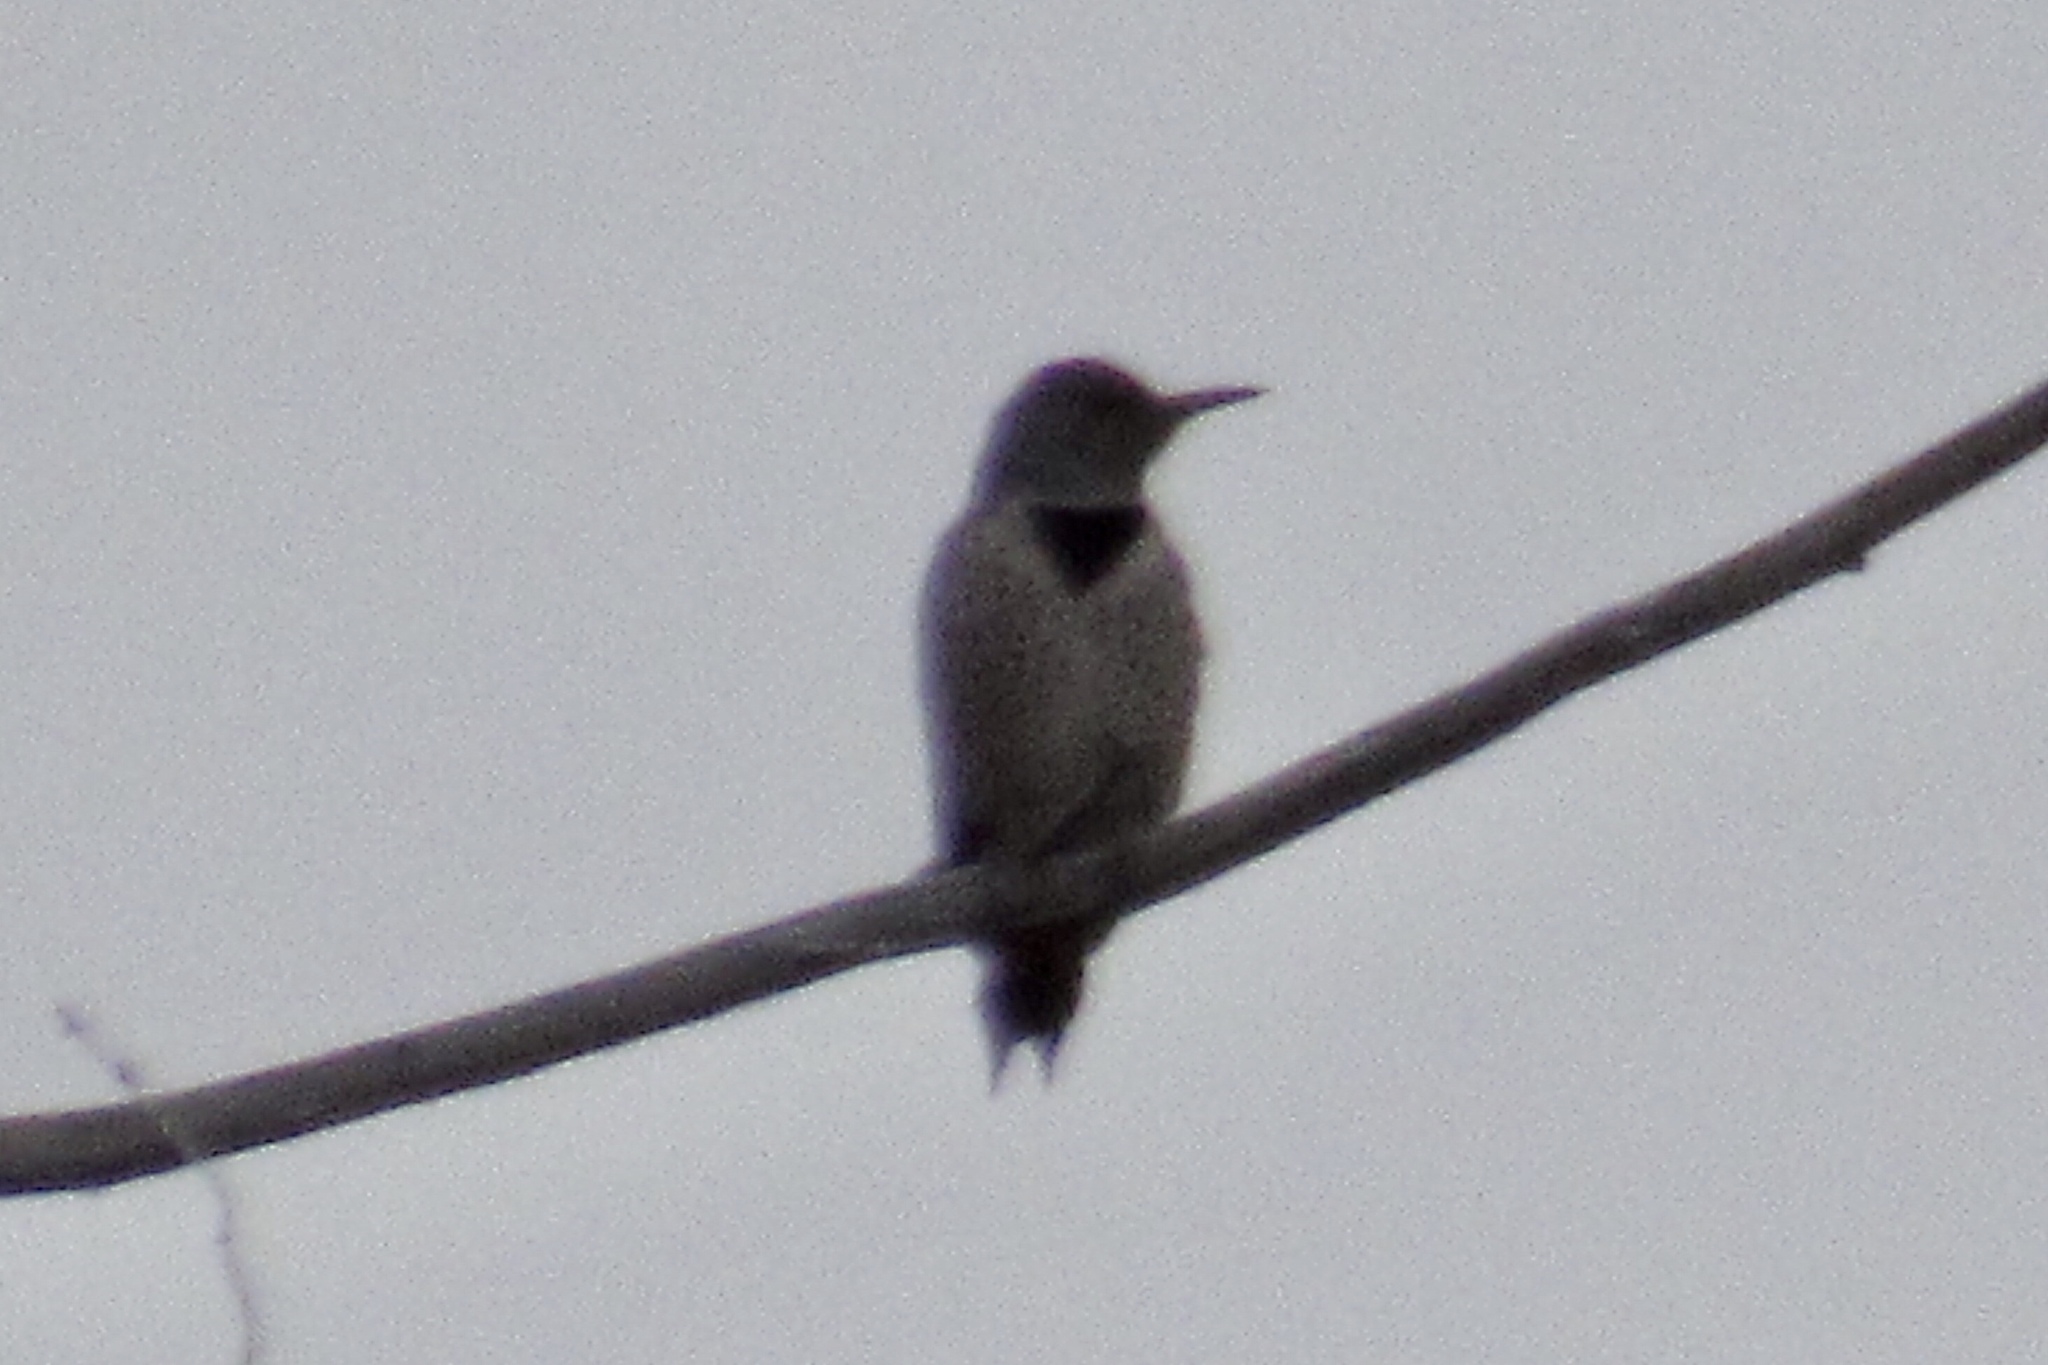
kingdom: Animalia
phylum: Chordata
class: Aves
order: Piciformes
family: Picidae
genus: Colaptes
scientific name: Colaptes auratus
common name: Northern flicker
